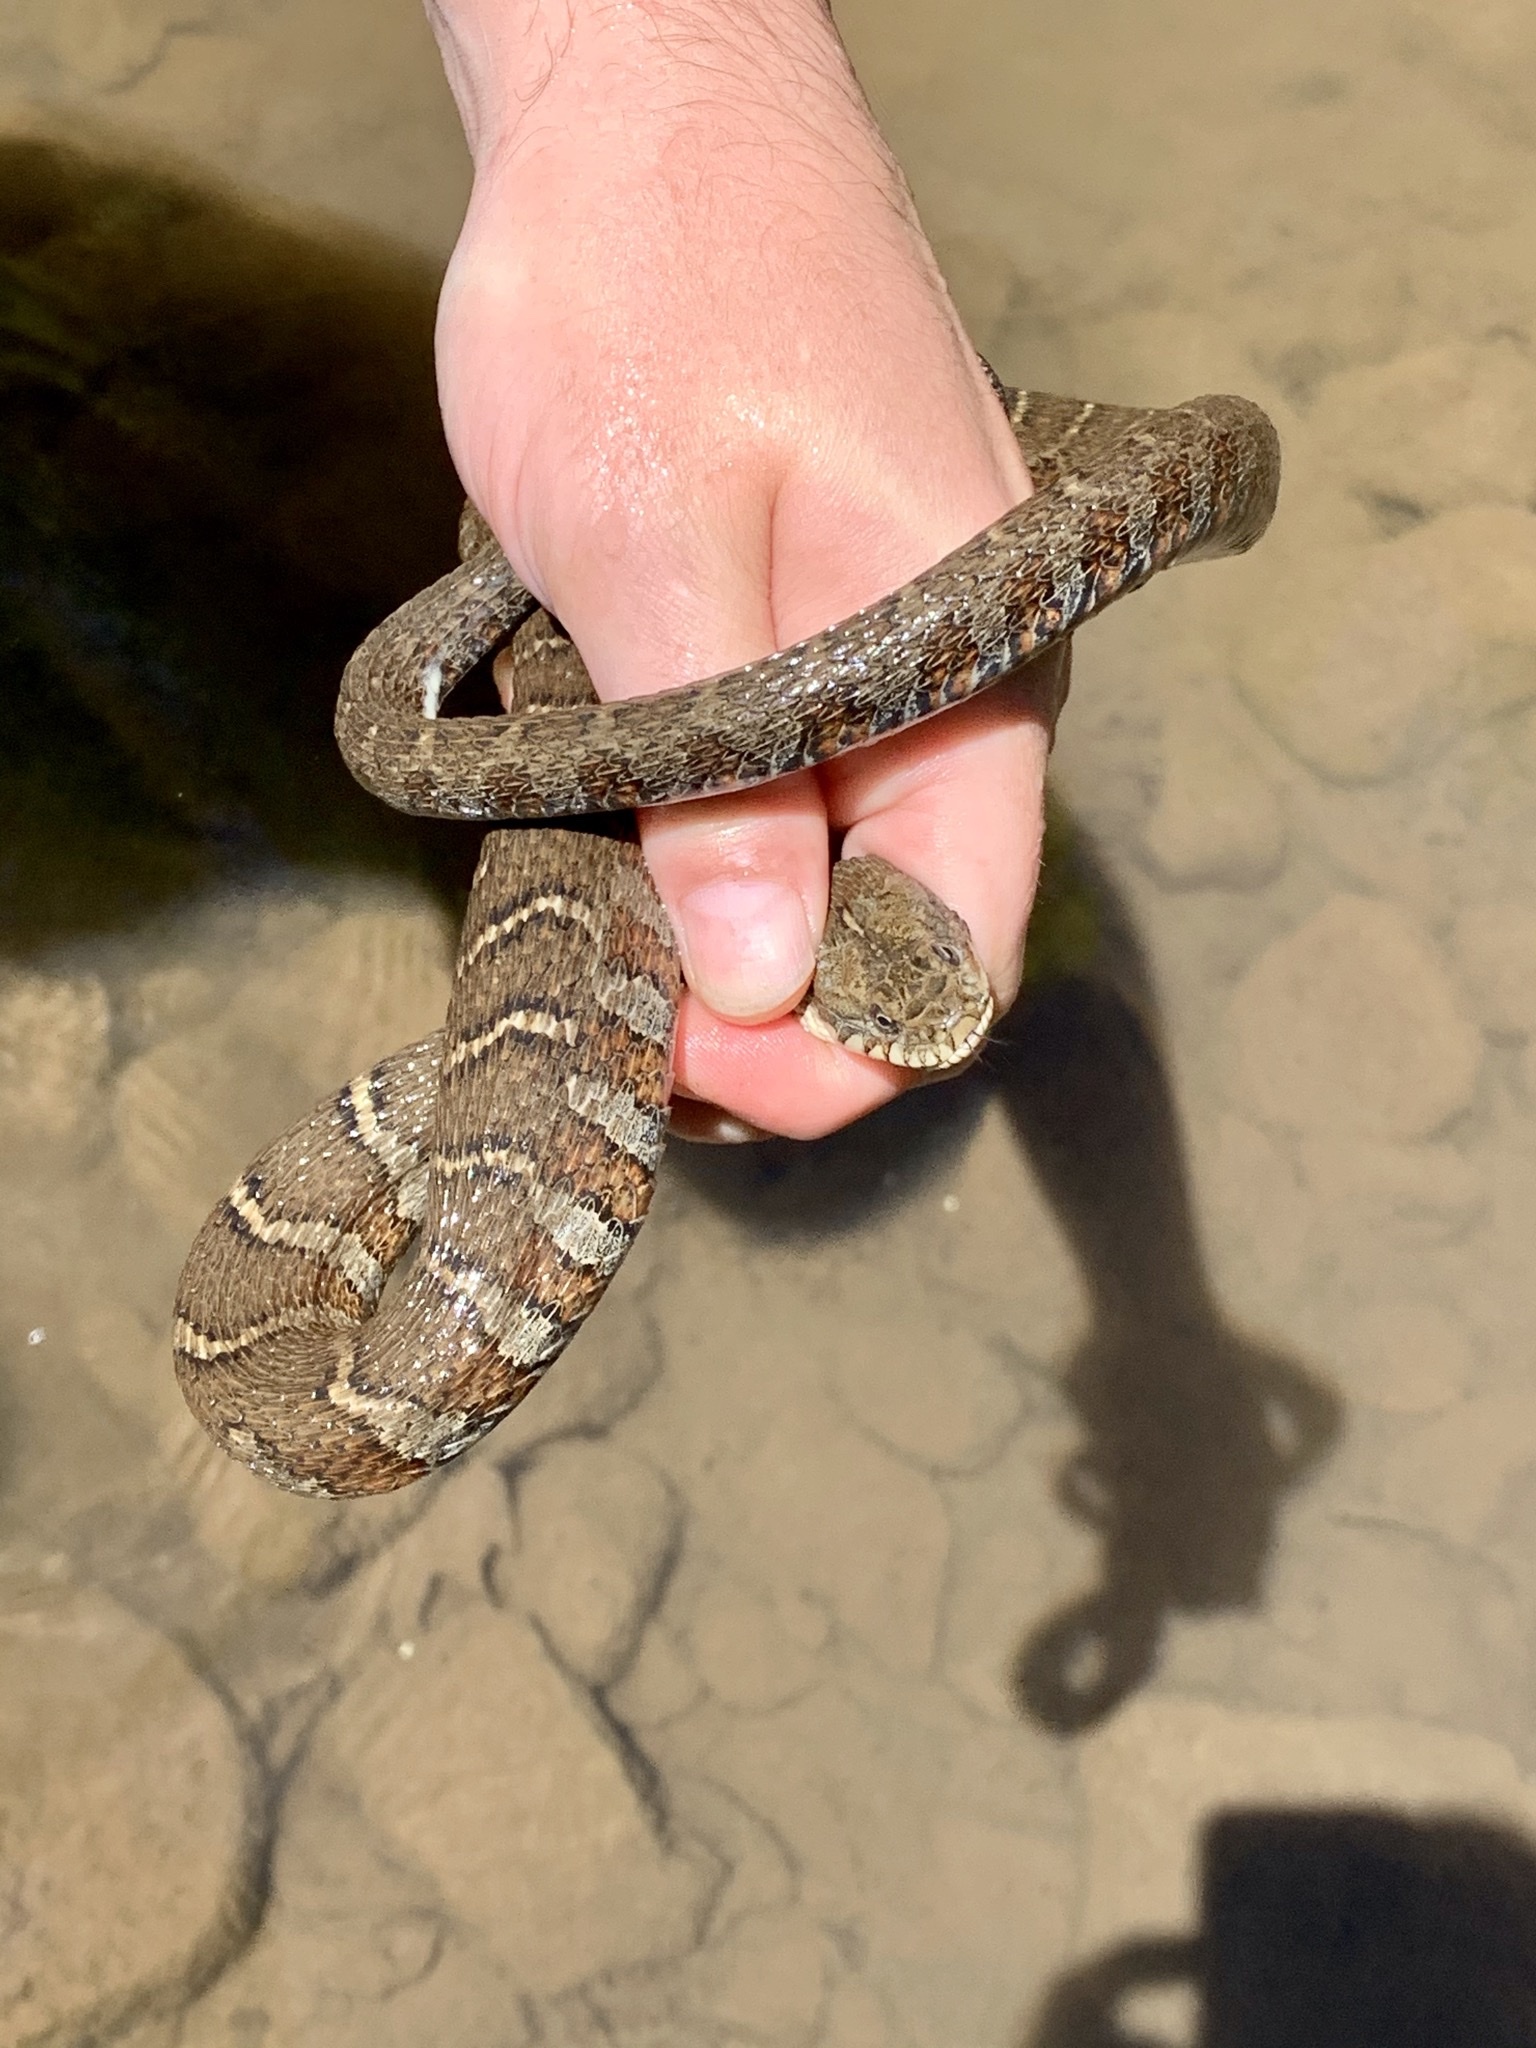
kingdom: Animalia
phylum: Chordata
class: Squamata
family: Colubridae
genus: Nerodia
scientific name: Nerodia sipedon
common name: Northern water snake
